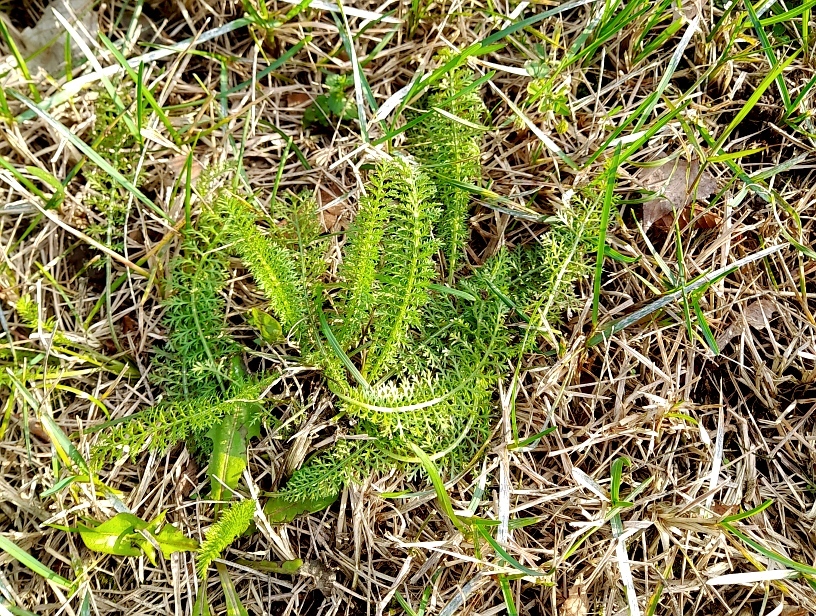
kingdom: Plantae
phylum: Tracheophyta
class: Magnoliopsida
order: Asterales
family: Asteraceae
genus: Achillea
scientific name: Achillea millefolium
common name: Yarrow
